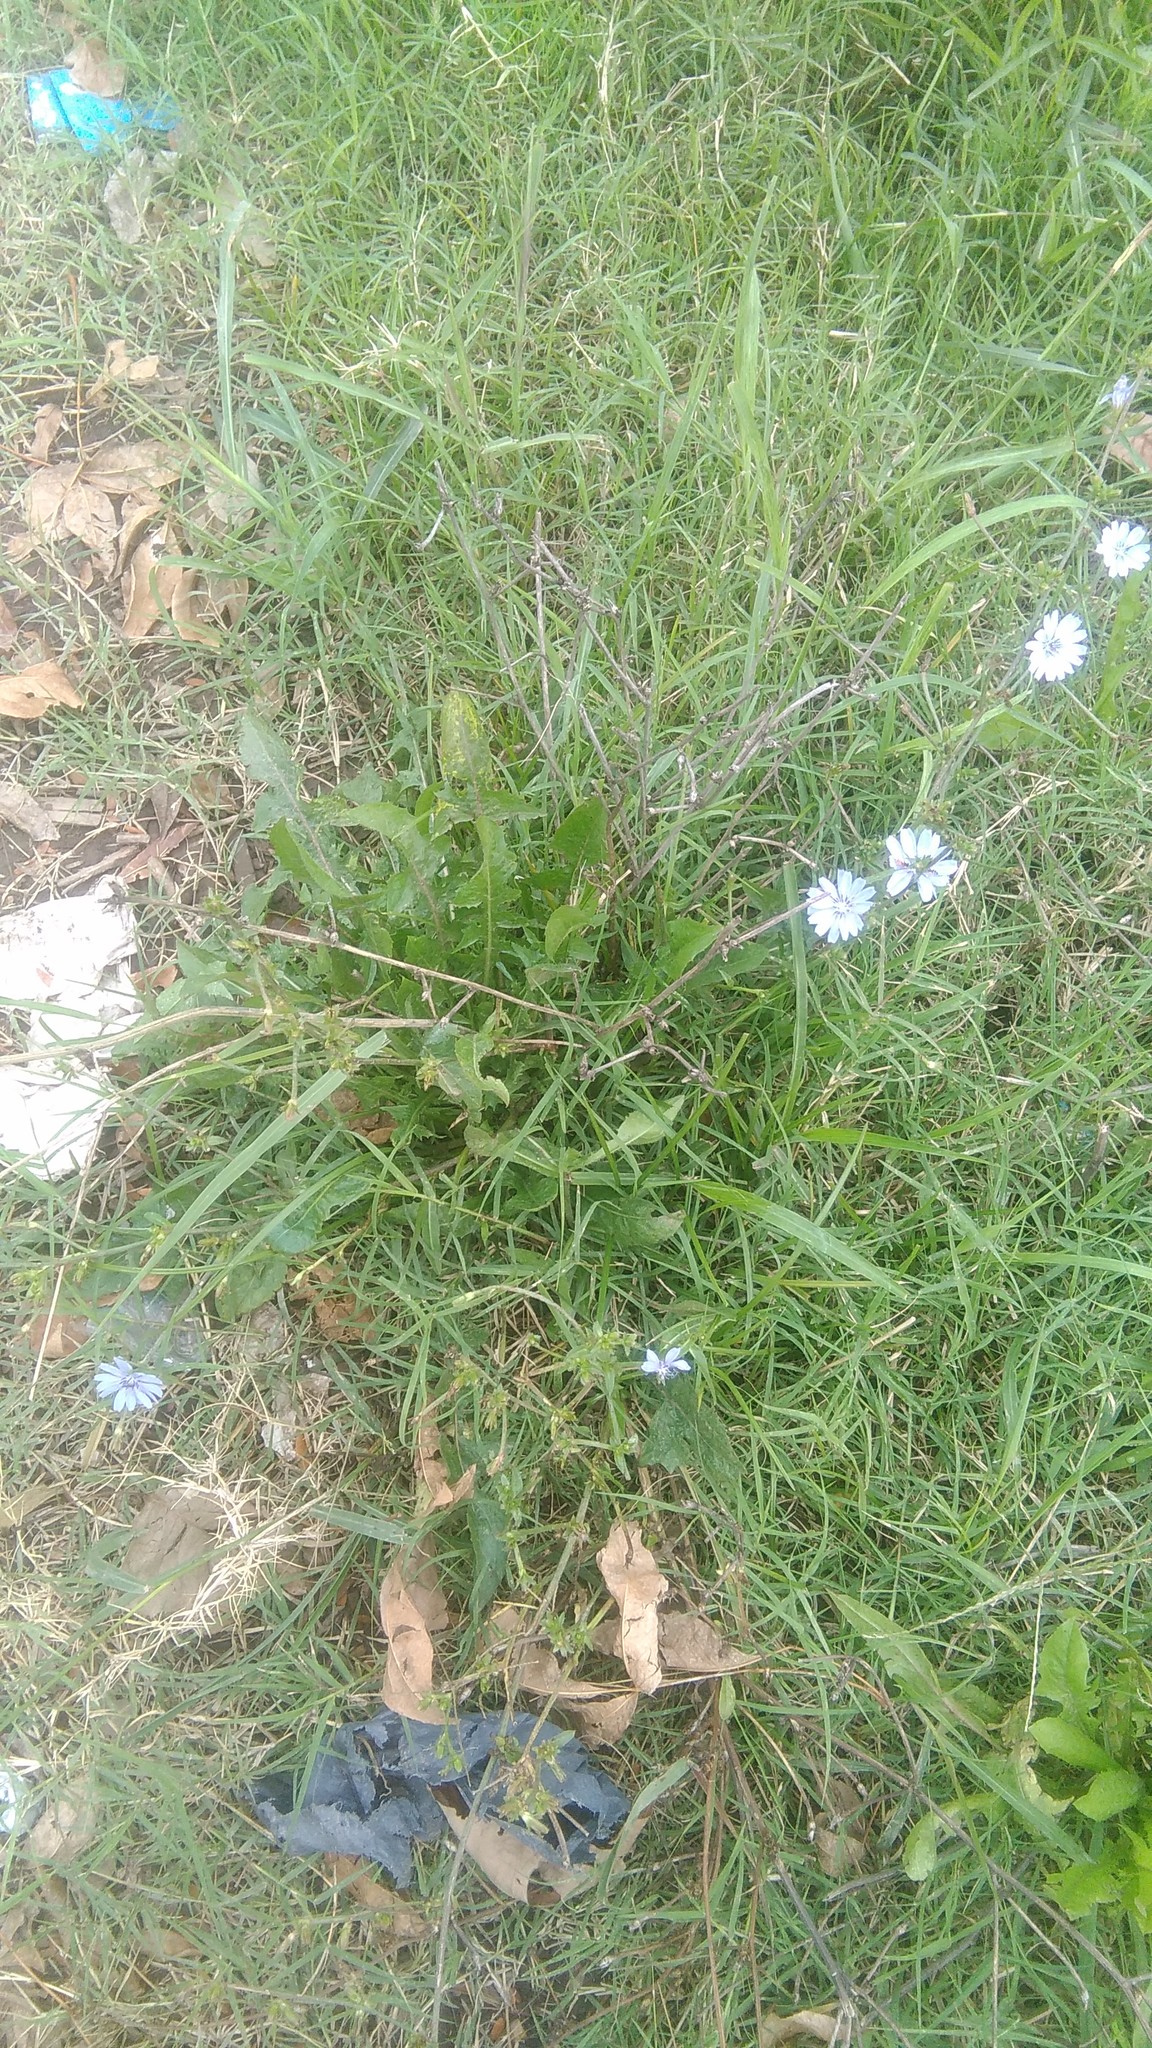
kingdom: Plantae
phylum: Tracheophyta
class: Magnoliopsida
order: Asterales
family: Asteraceae
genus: Cichorium
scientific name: Cichorium intybus
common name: Chicory
